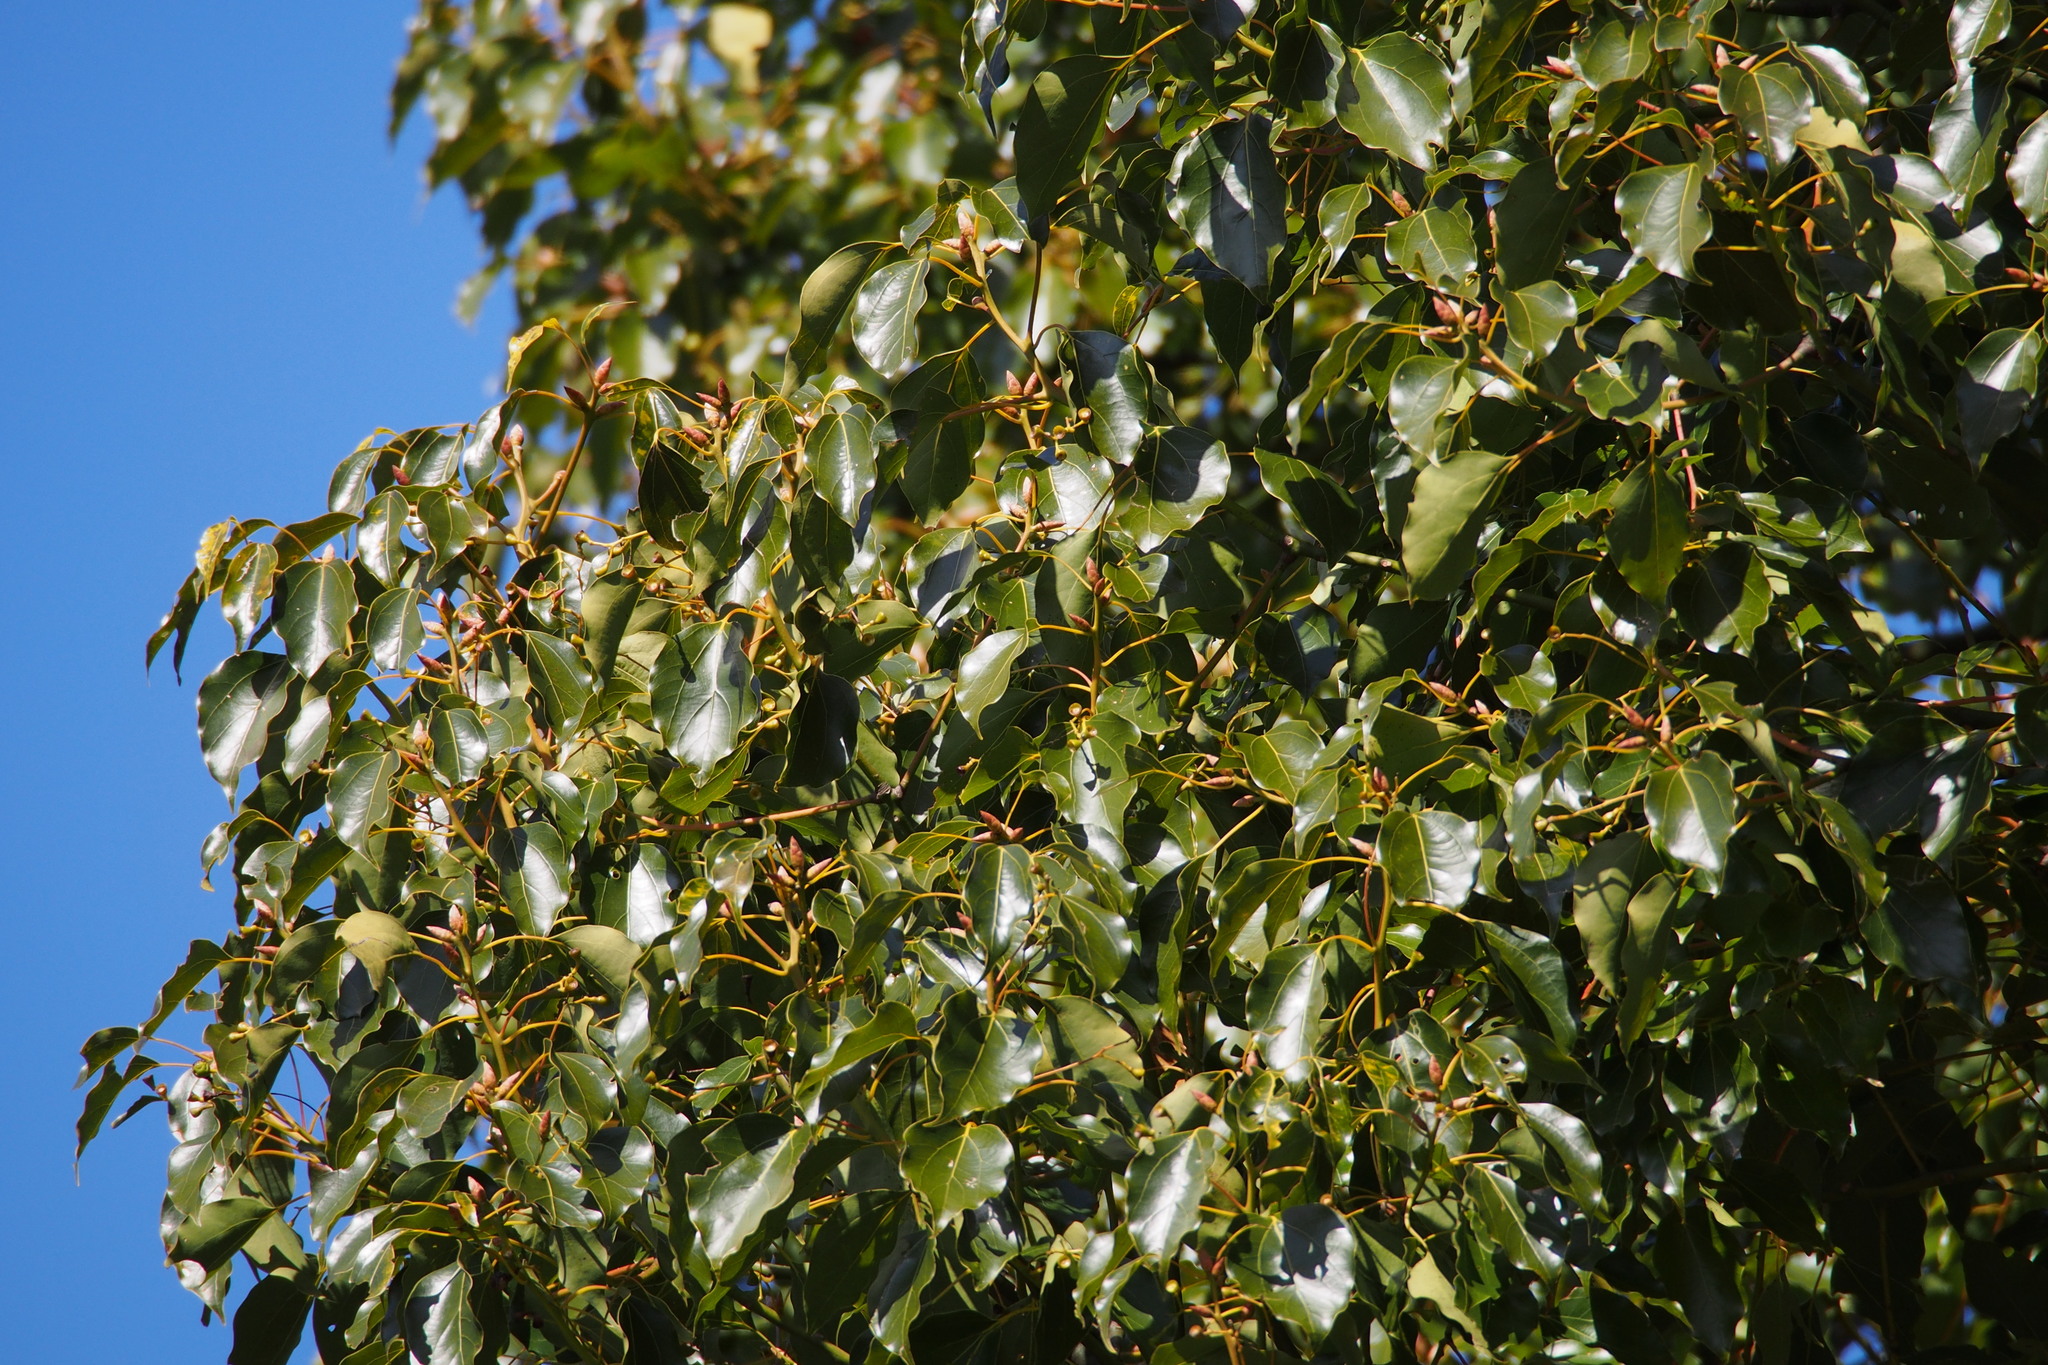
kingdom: Plantae
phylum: Tracheophyta
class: Magnoliopsida
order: Laurales
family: Lauraceae
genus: Cinnamomum
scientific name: Cinnamomum camphora
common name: Camphortree
